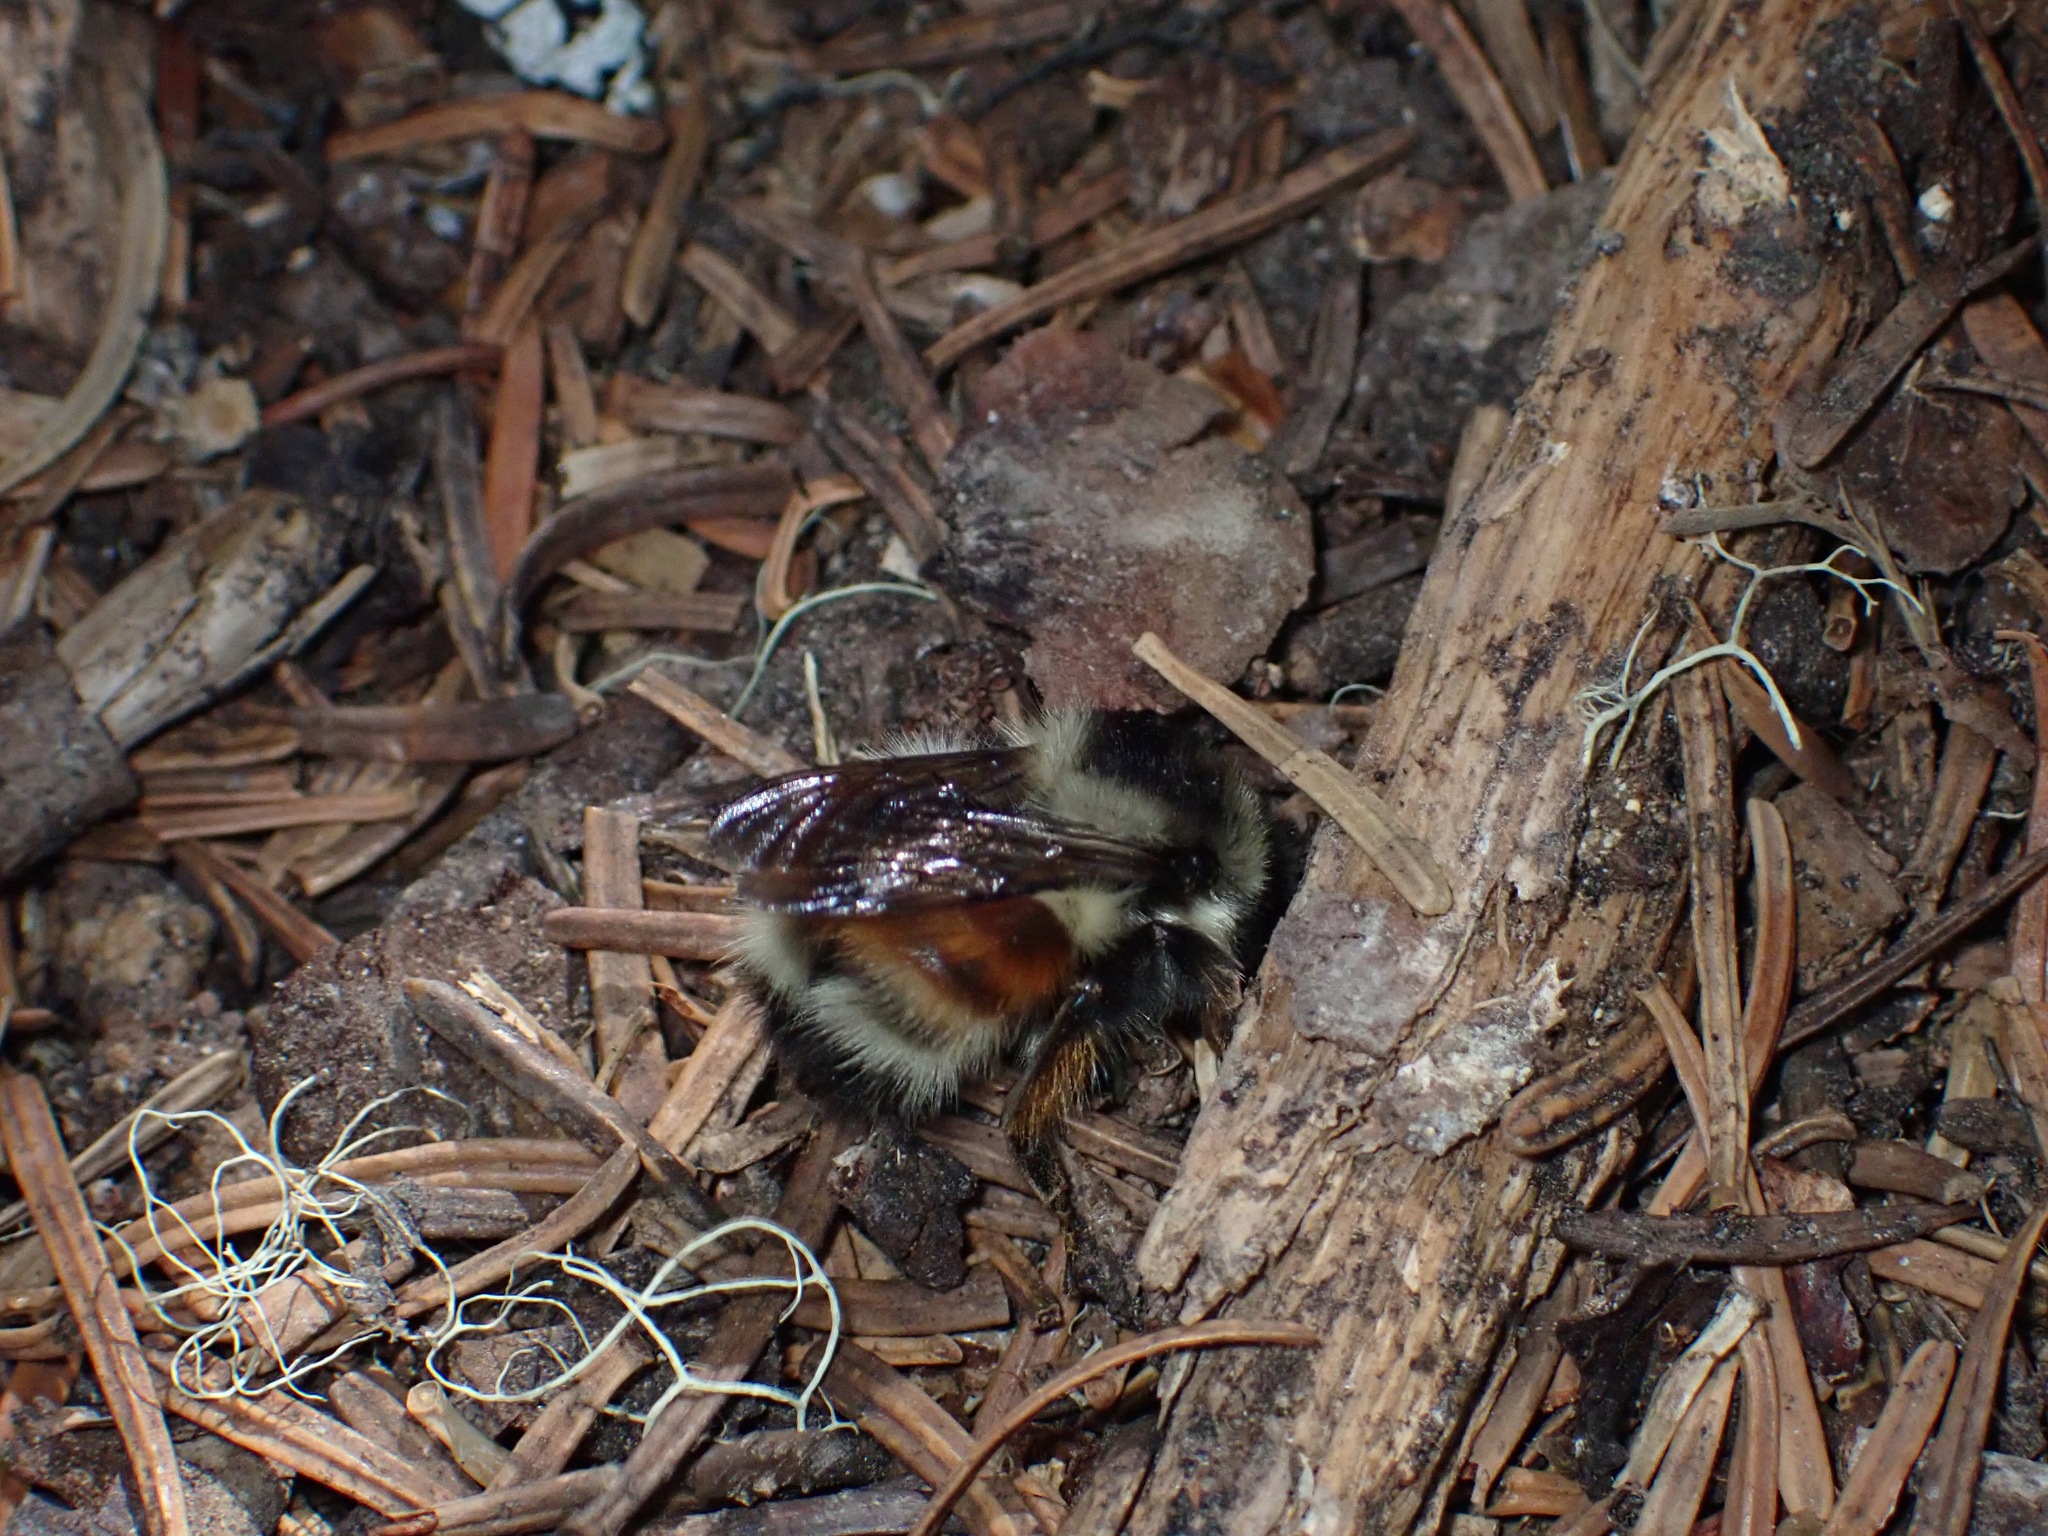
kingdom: Animalia
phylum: Arthropoda
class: Insecta
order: Hymenoptera
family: Apidae
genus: Bombus
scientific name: Bombus melanopygus
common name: Black tail bumble bee
